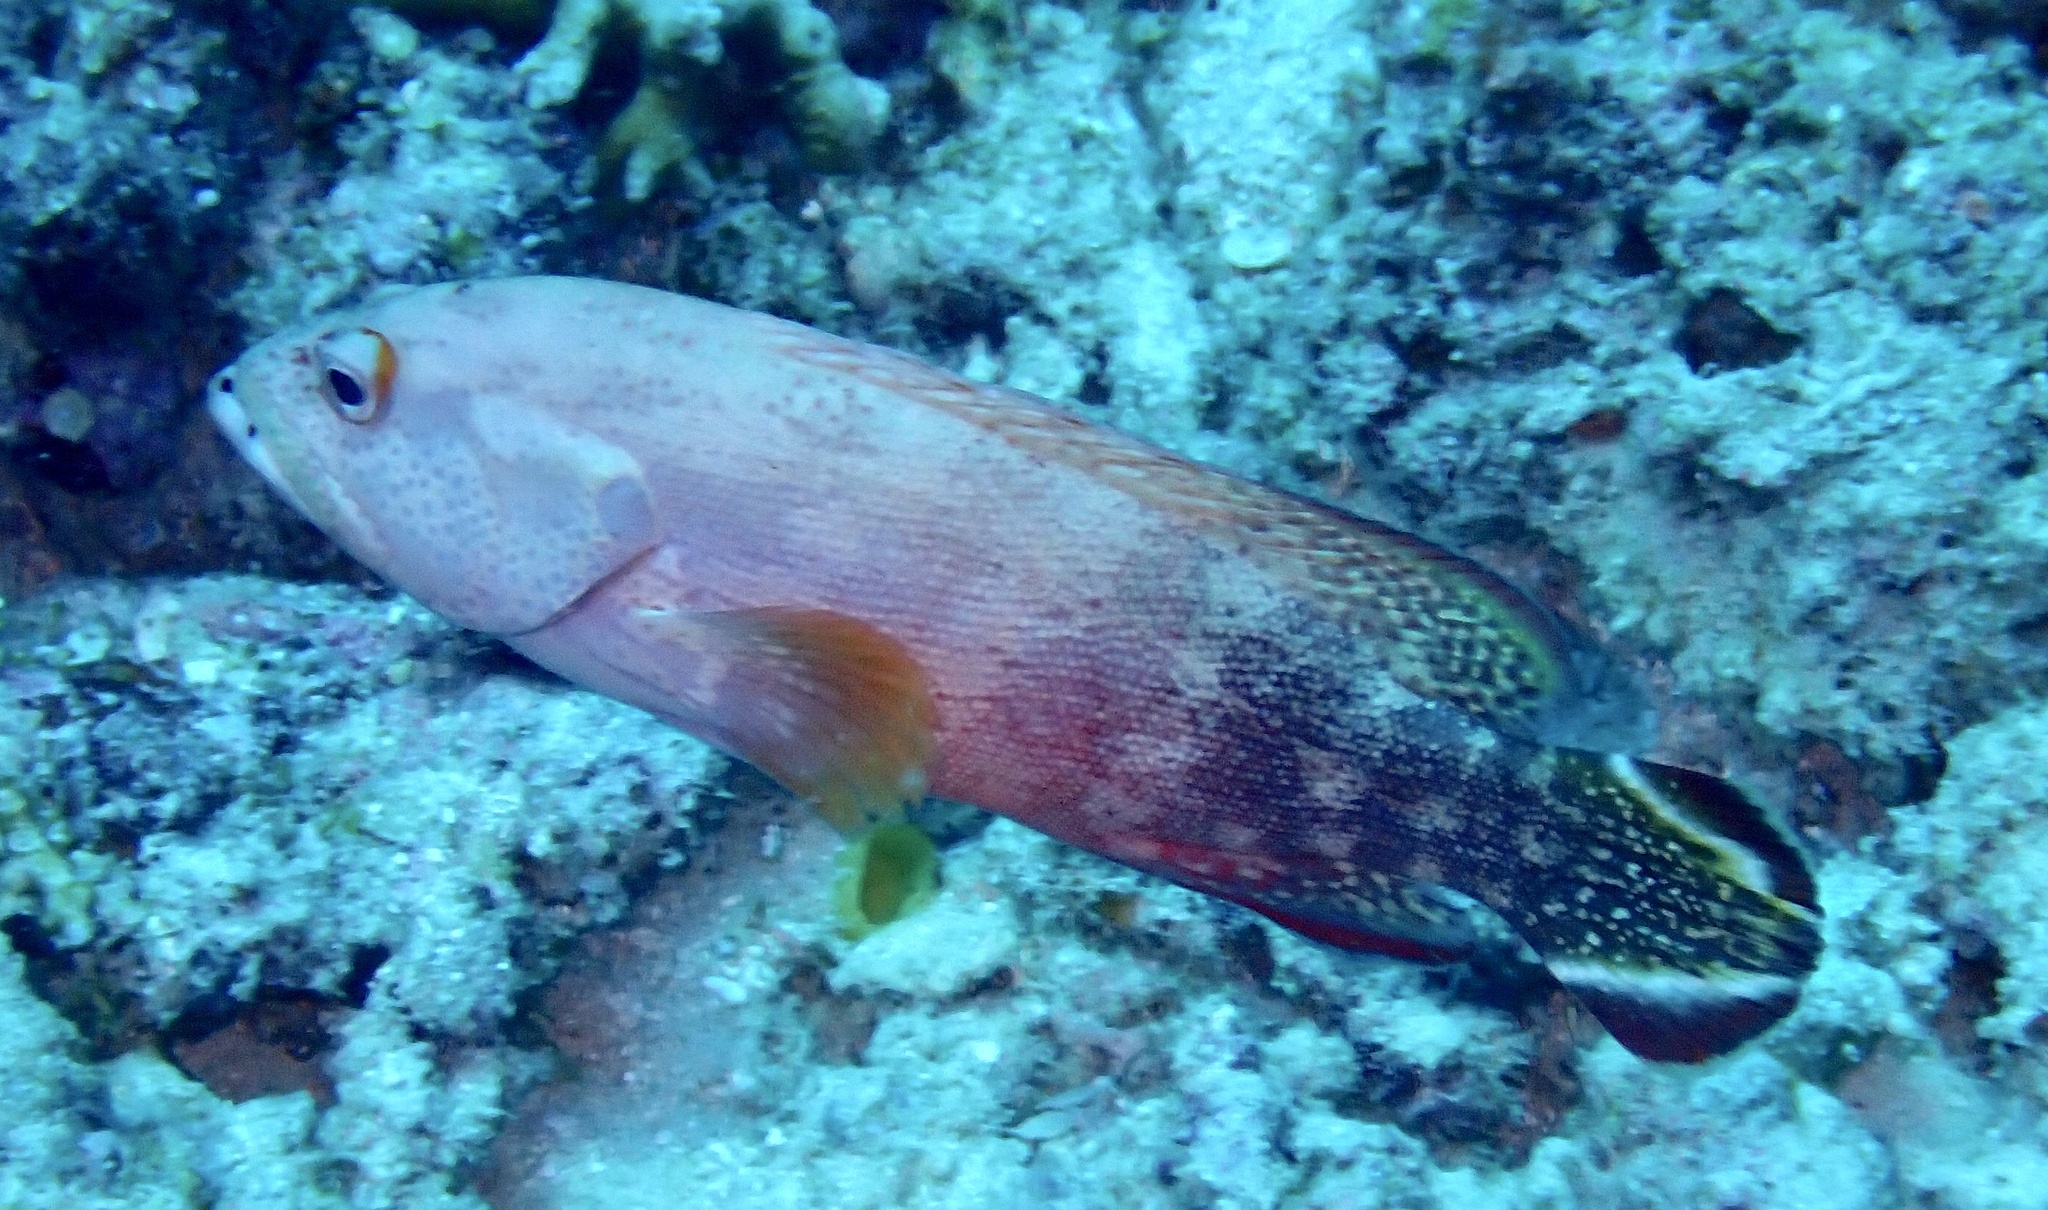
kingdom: Animalia
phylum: Chordata
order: Perciformes
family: Serranidae
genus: Cephalopholis
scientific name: Cephalopholis urodeta
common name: Darkfin hind
